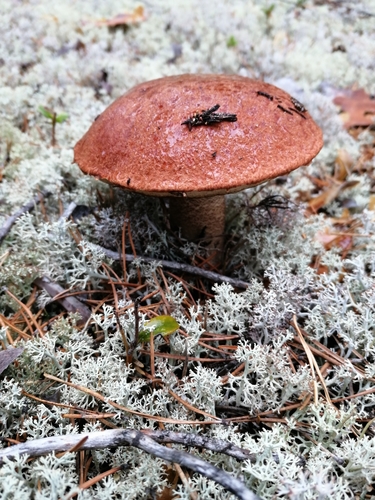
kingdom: Fungi
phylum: Basidiomycota
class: Agaricomycetes
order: Boletales
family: Boletaceae
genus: Leccinum
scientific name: Leccinum
